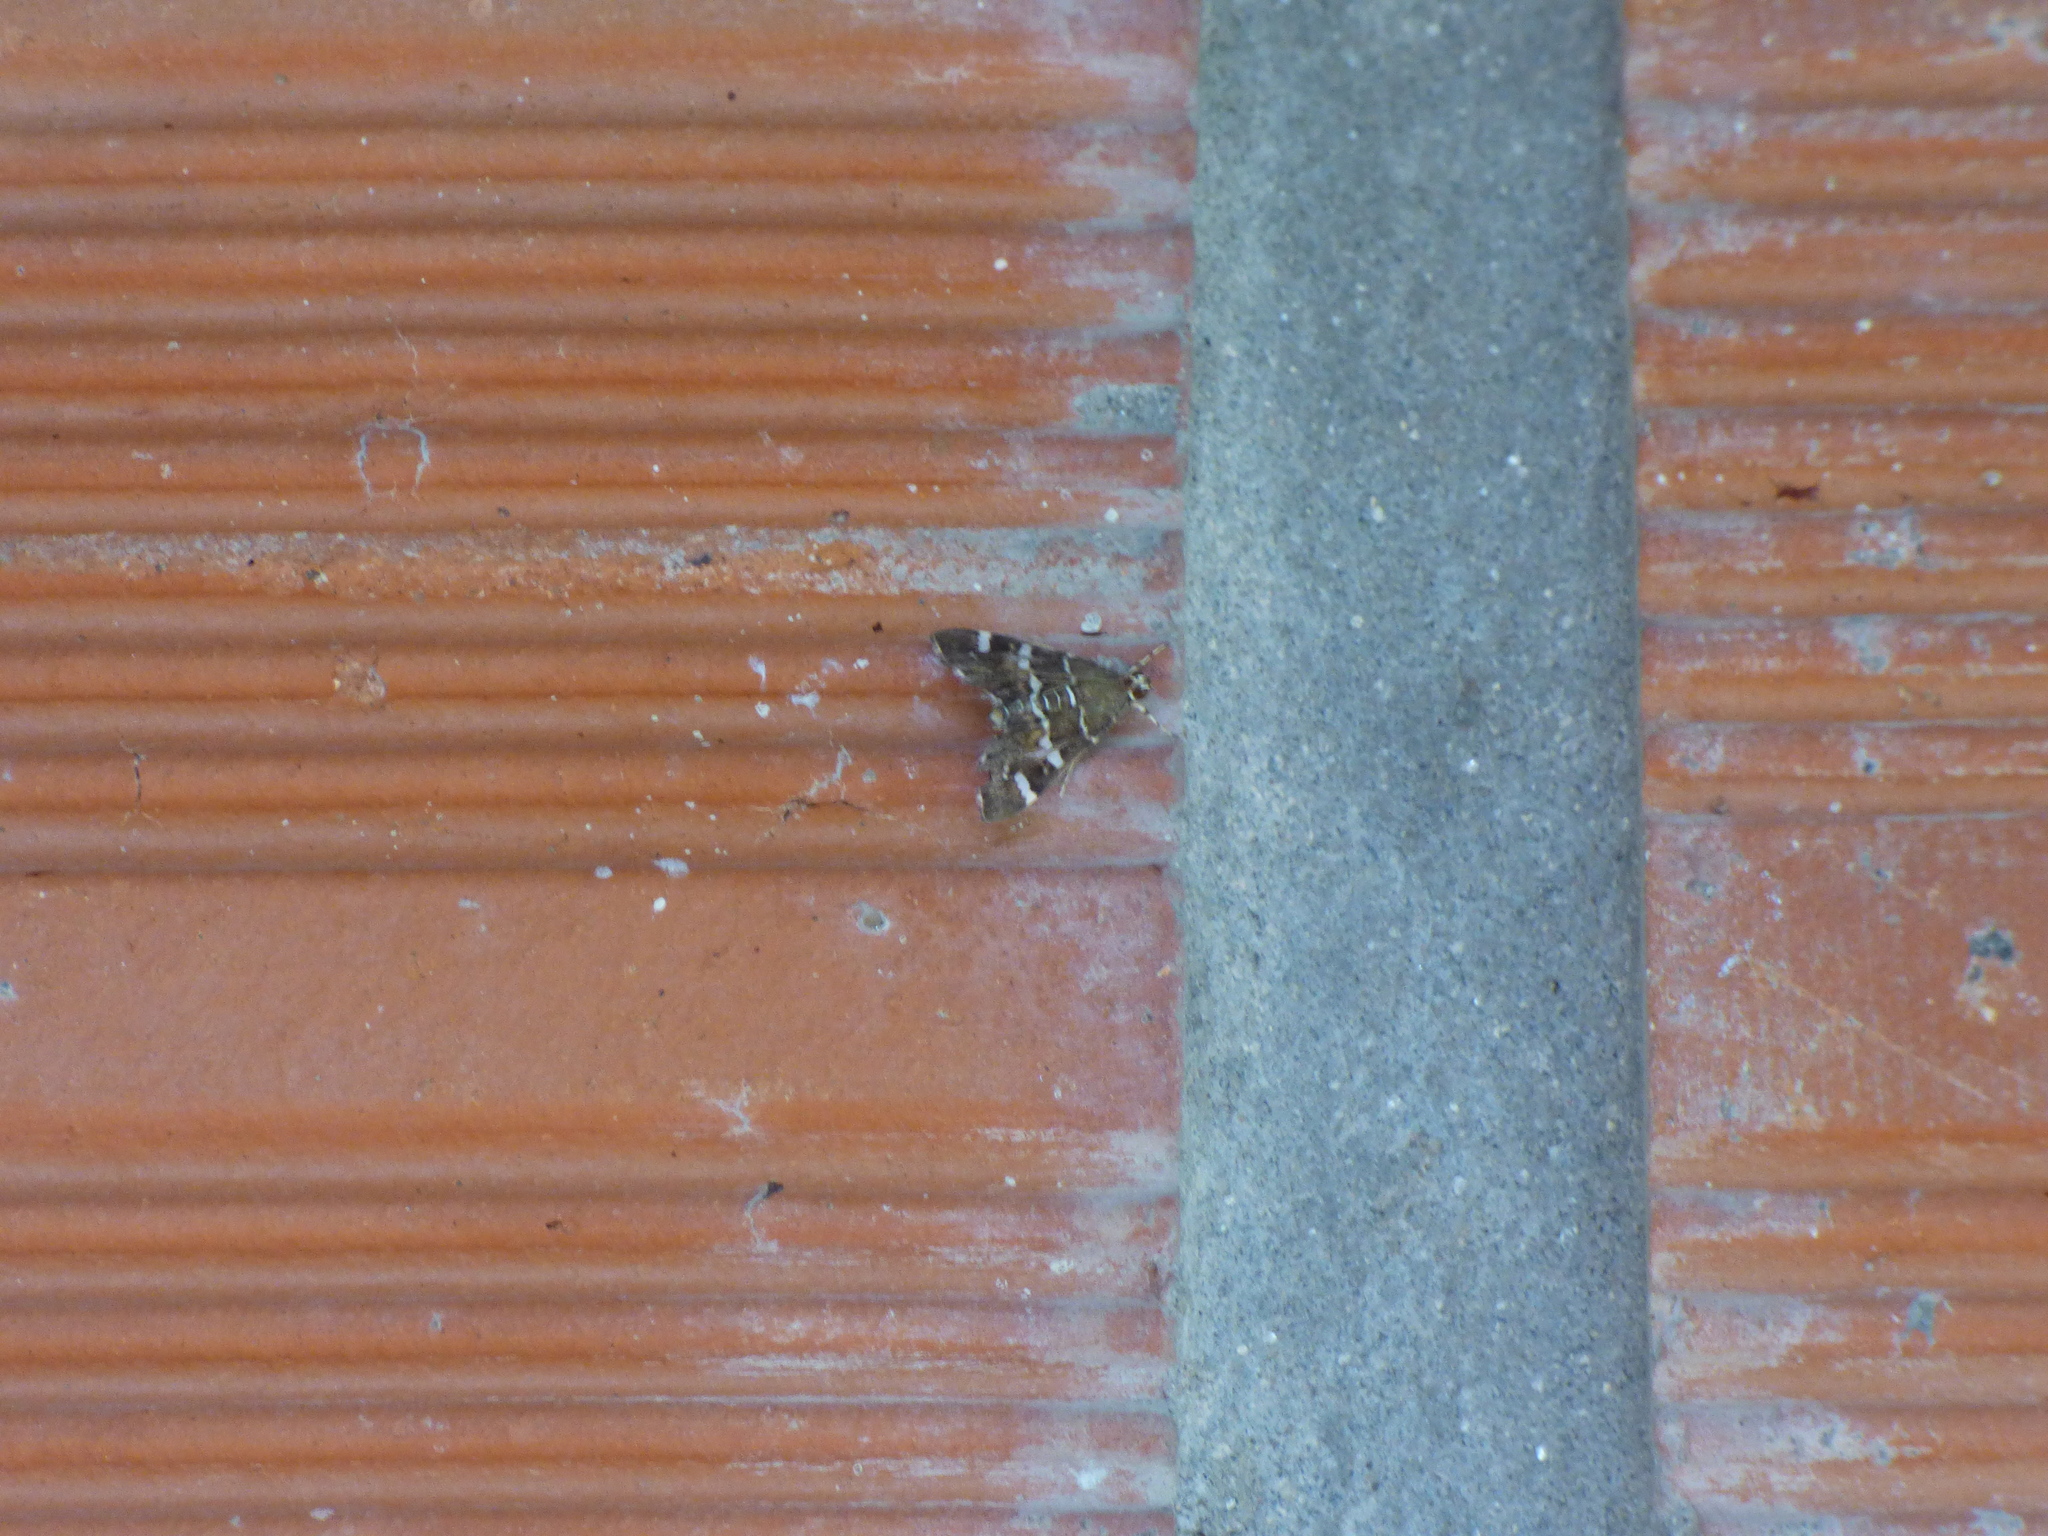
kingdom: Animalia
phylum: Arthropoda
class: Insecta
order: Lepidoptera
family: Crambidae
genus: Hymenia
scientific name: Hymenia perspectalis
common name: Spotted beet webworm
